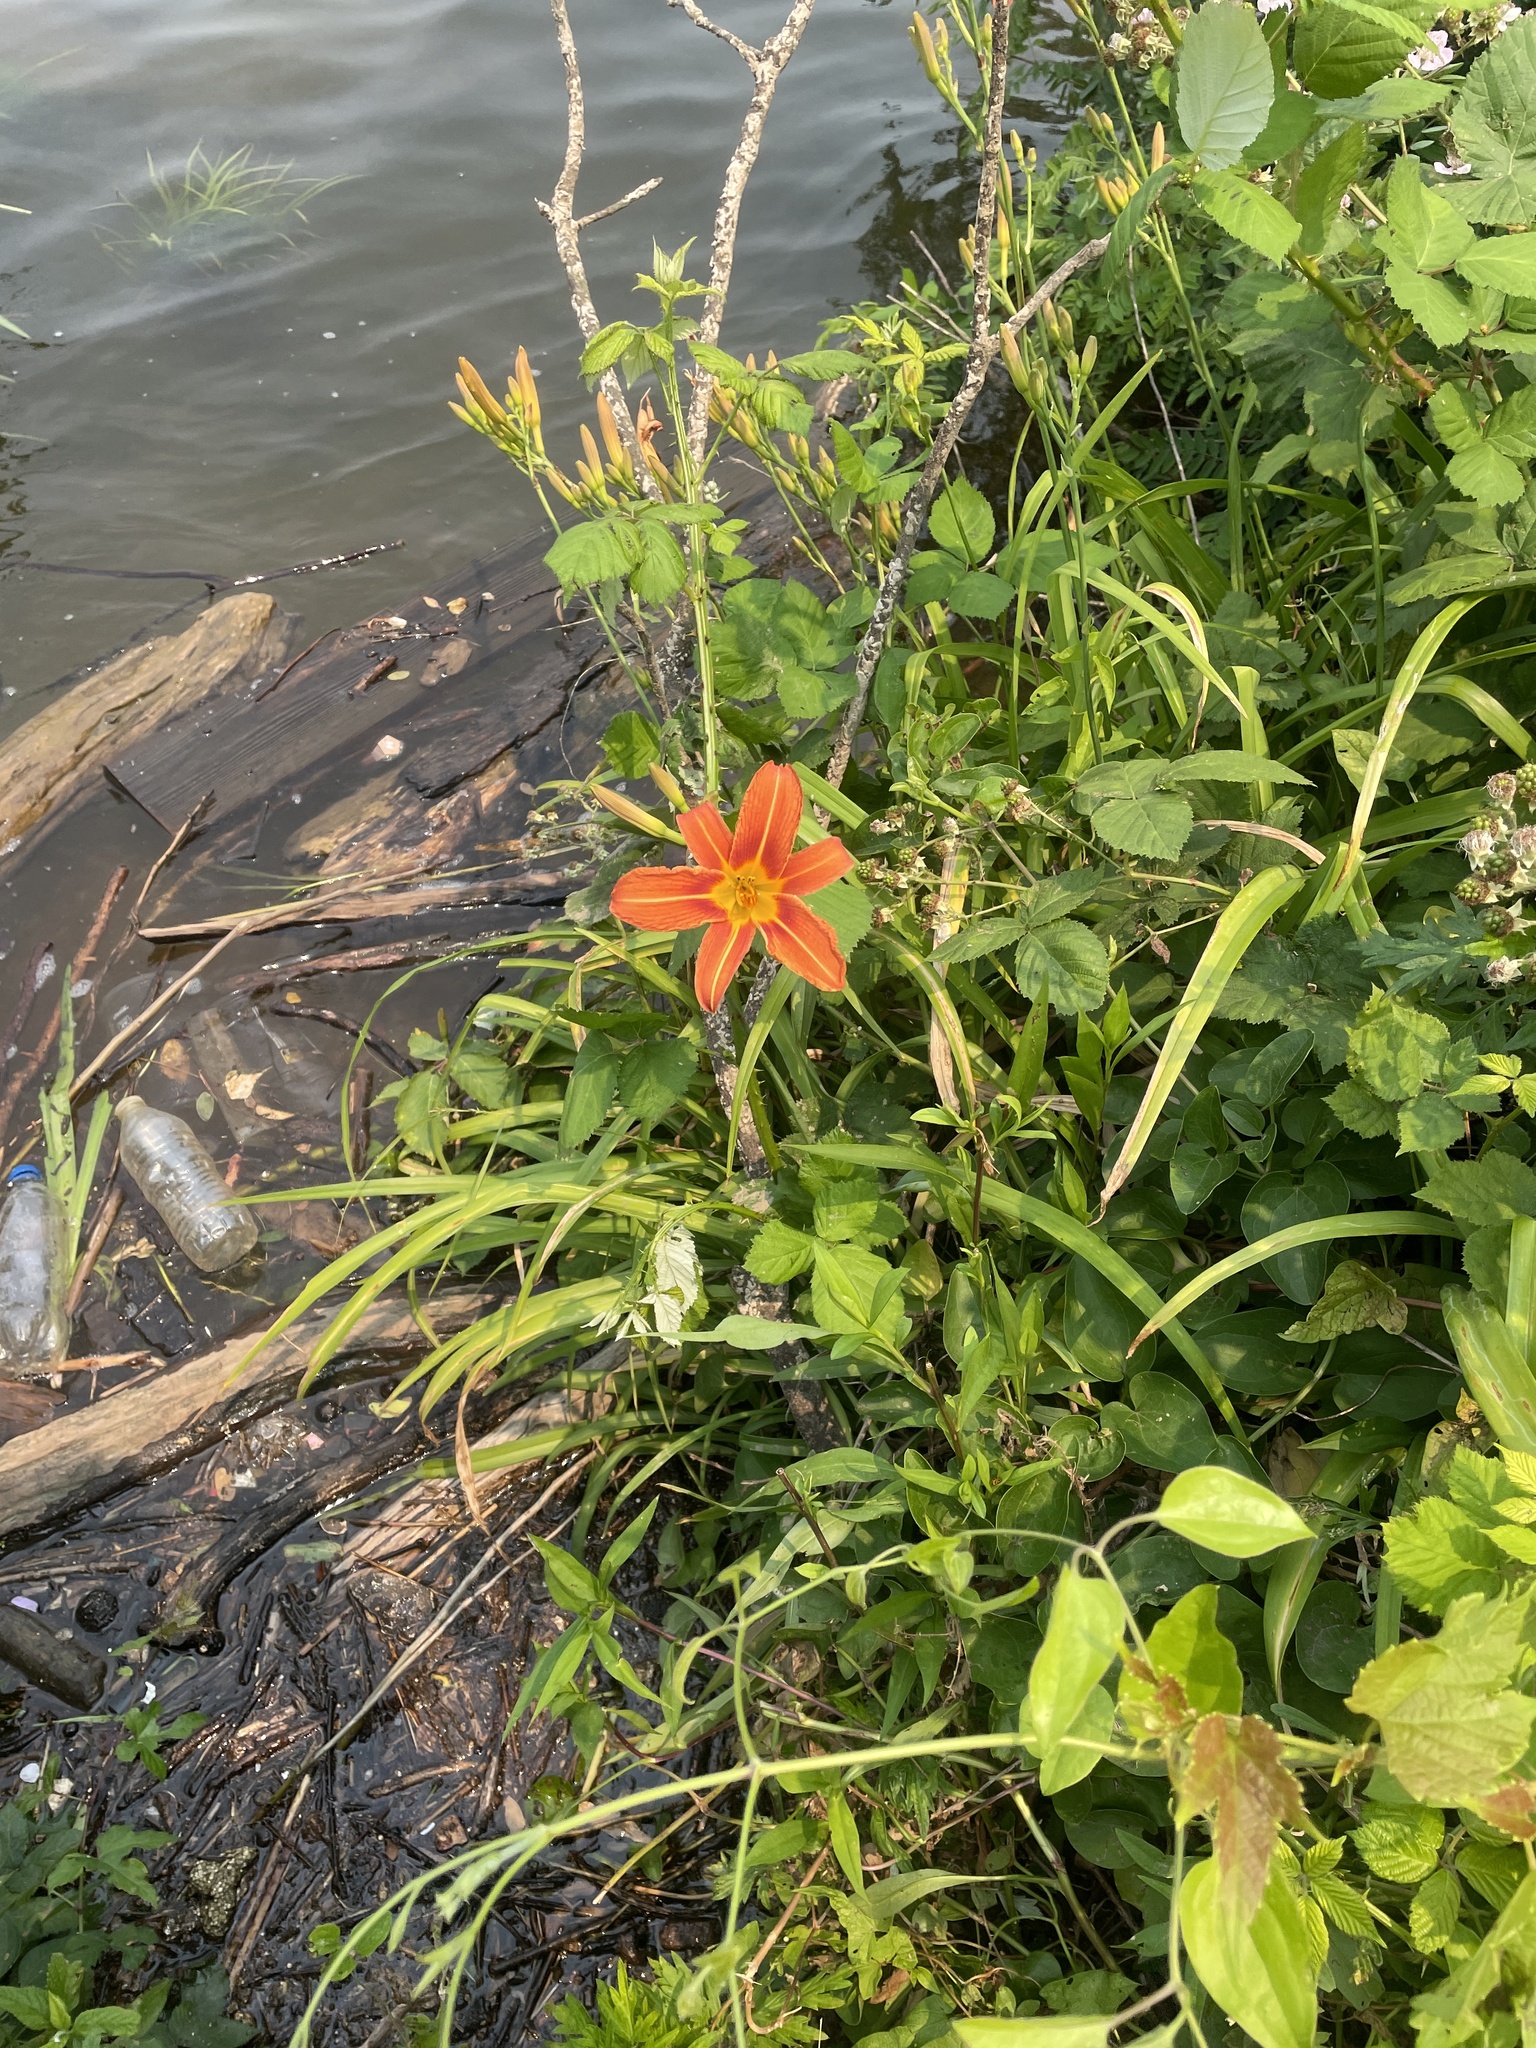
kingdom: Plantae
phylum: Tracheophyta
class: Liliopsida
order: Asparagales
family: Asphodelaceae
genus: Hemerocallis
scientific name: Hemerocallis fulva
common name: Orange day-lily
